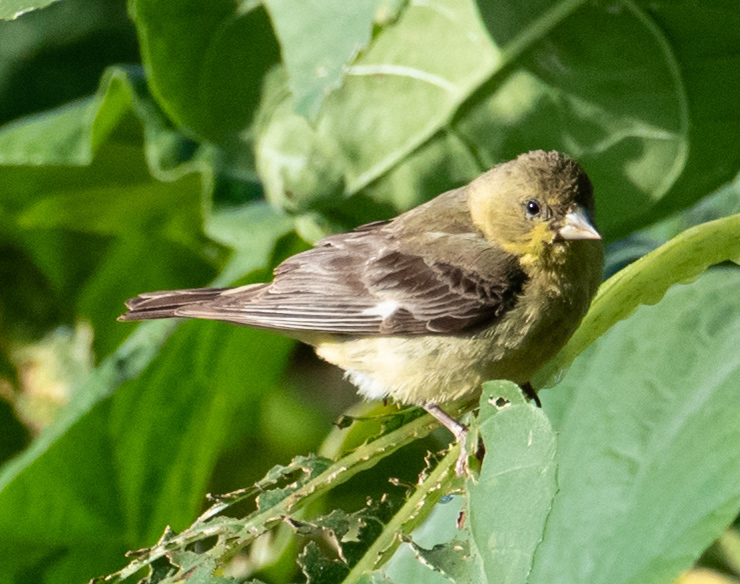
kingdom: Animalia
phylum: Chordata
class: Aves
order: Passeriformes
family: Fringillidae
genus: Spinus
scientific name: Spinus psaltria
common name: Lesser goldfinch
